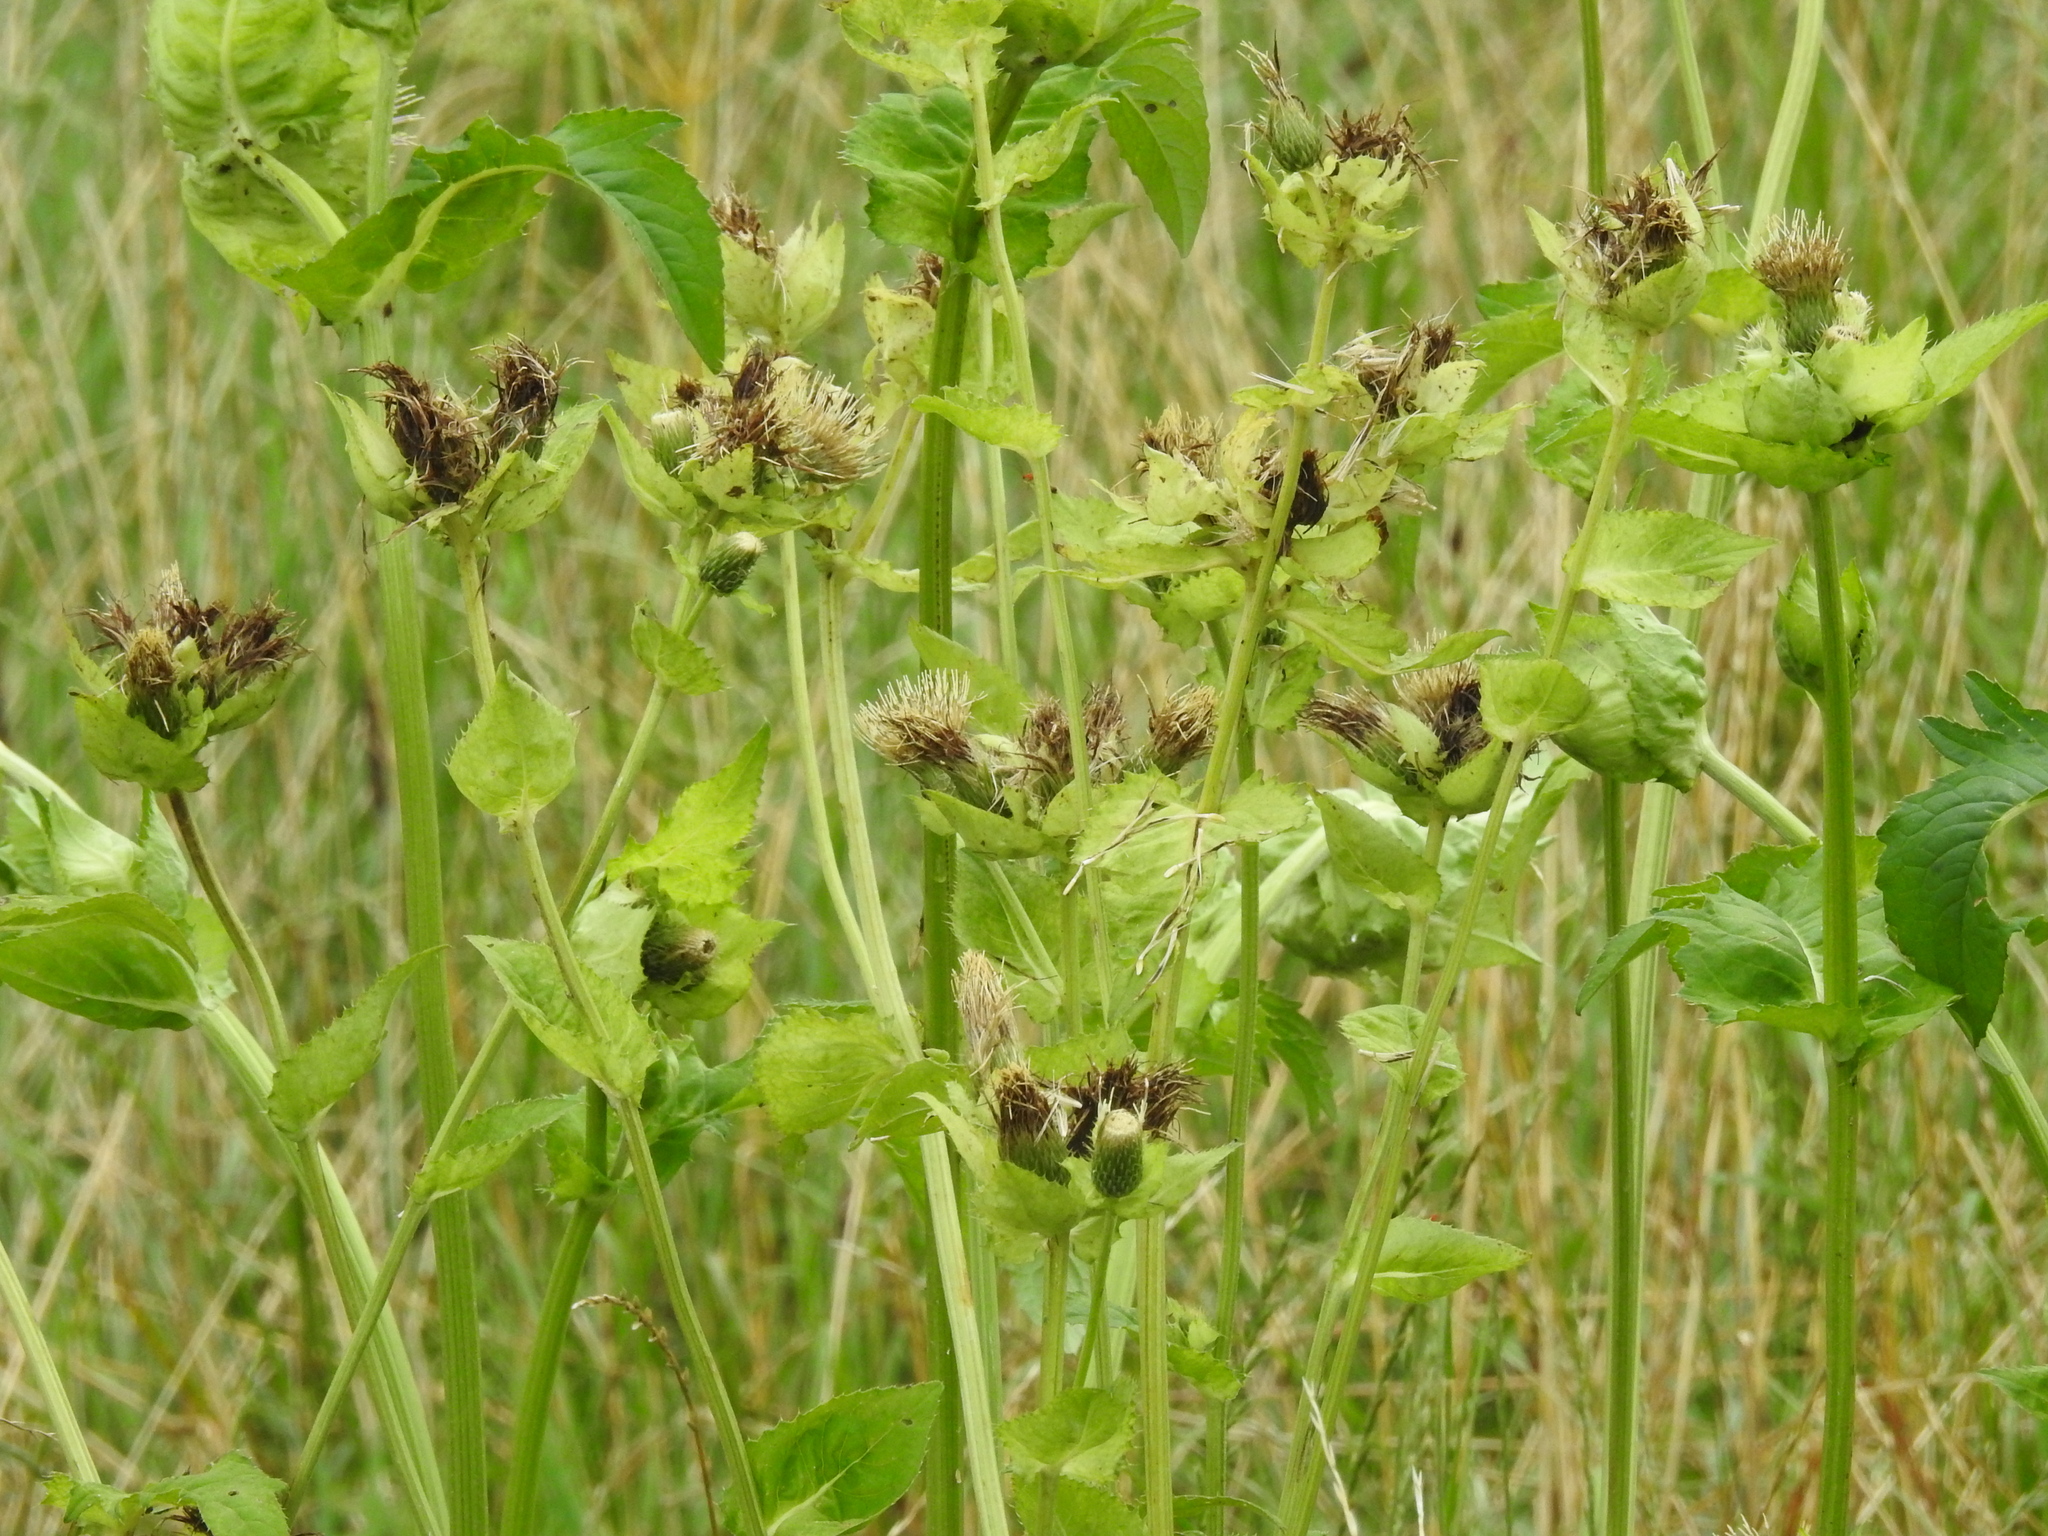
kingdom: Plantae
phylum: Tracheophyta
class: Magnoliopsida
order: Asterales
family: Asteraceae
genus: Cirsium
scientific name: Cirsium oleraceum
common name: Cabbage thistle
